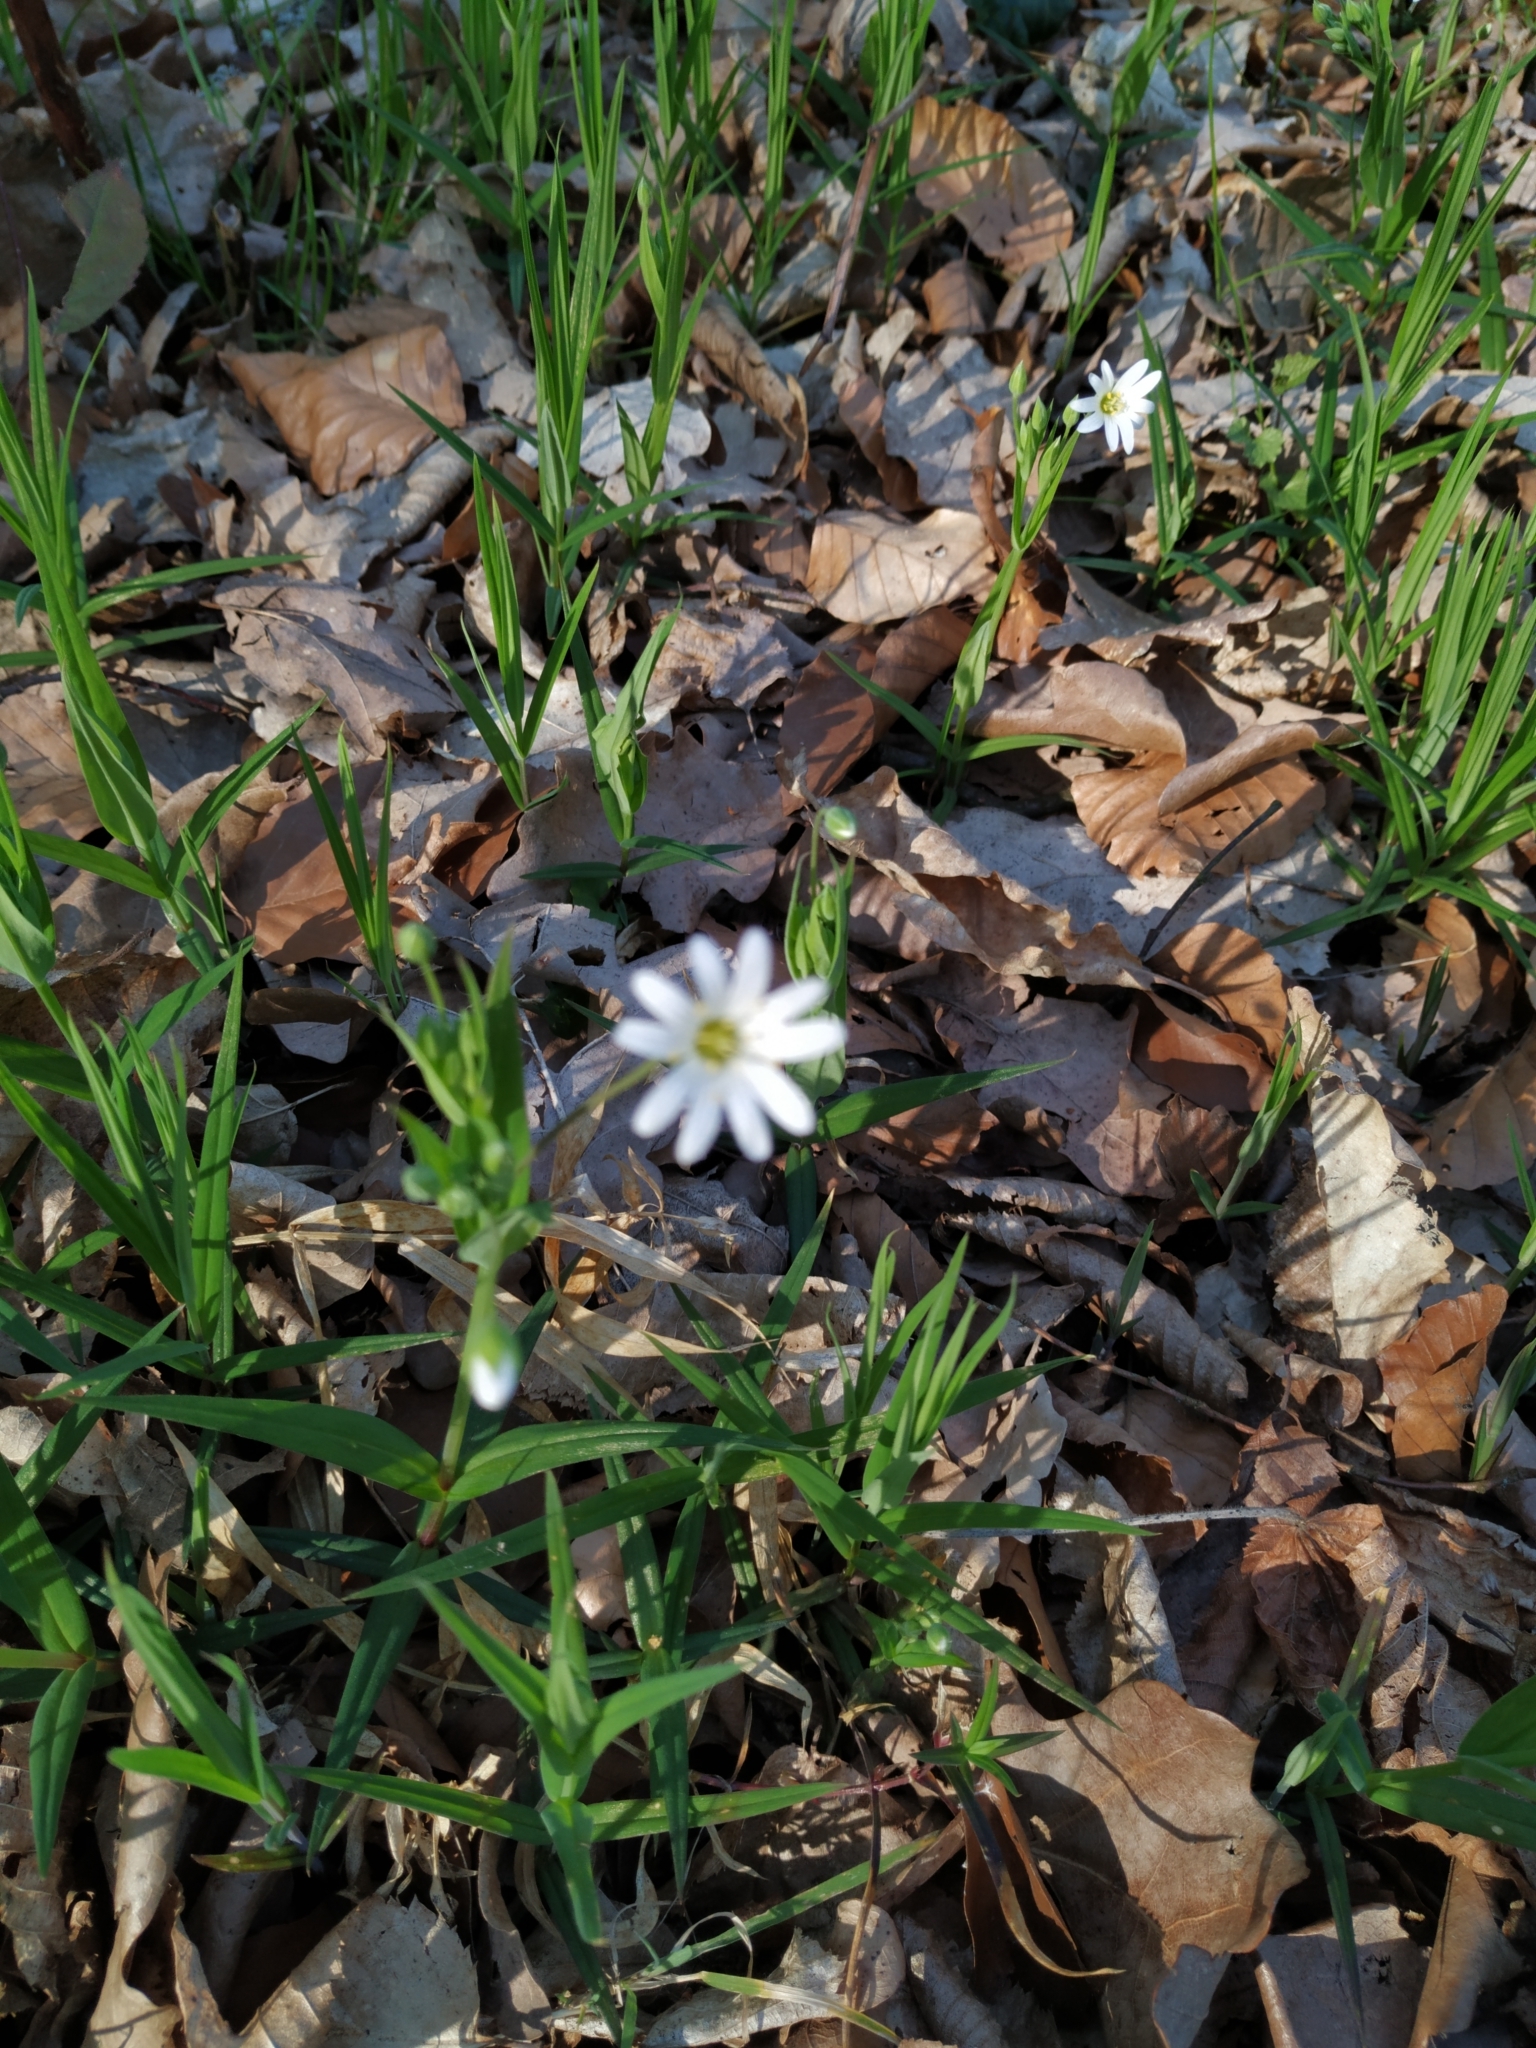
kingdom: Plantae
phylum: Tracheophyta
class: Magnoliopsida
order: Caryophyllales
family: Caryophyllaceae
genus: Rabelera
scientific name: Rabelera holostea
